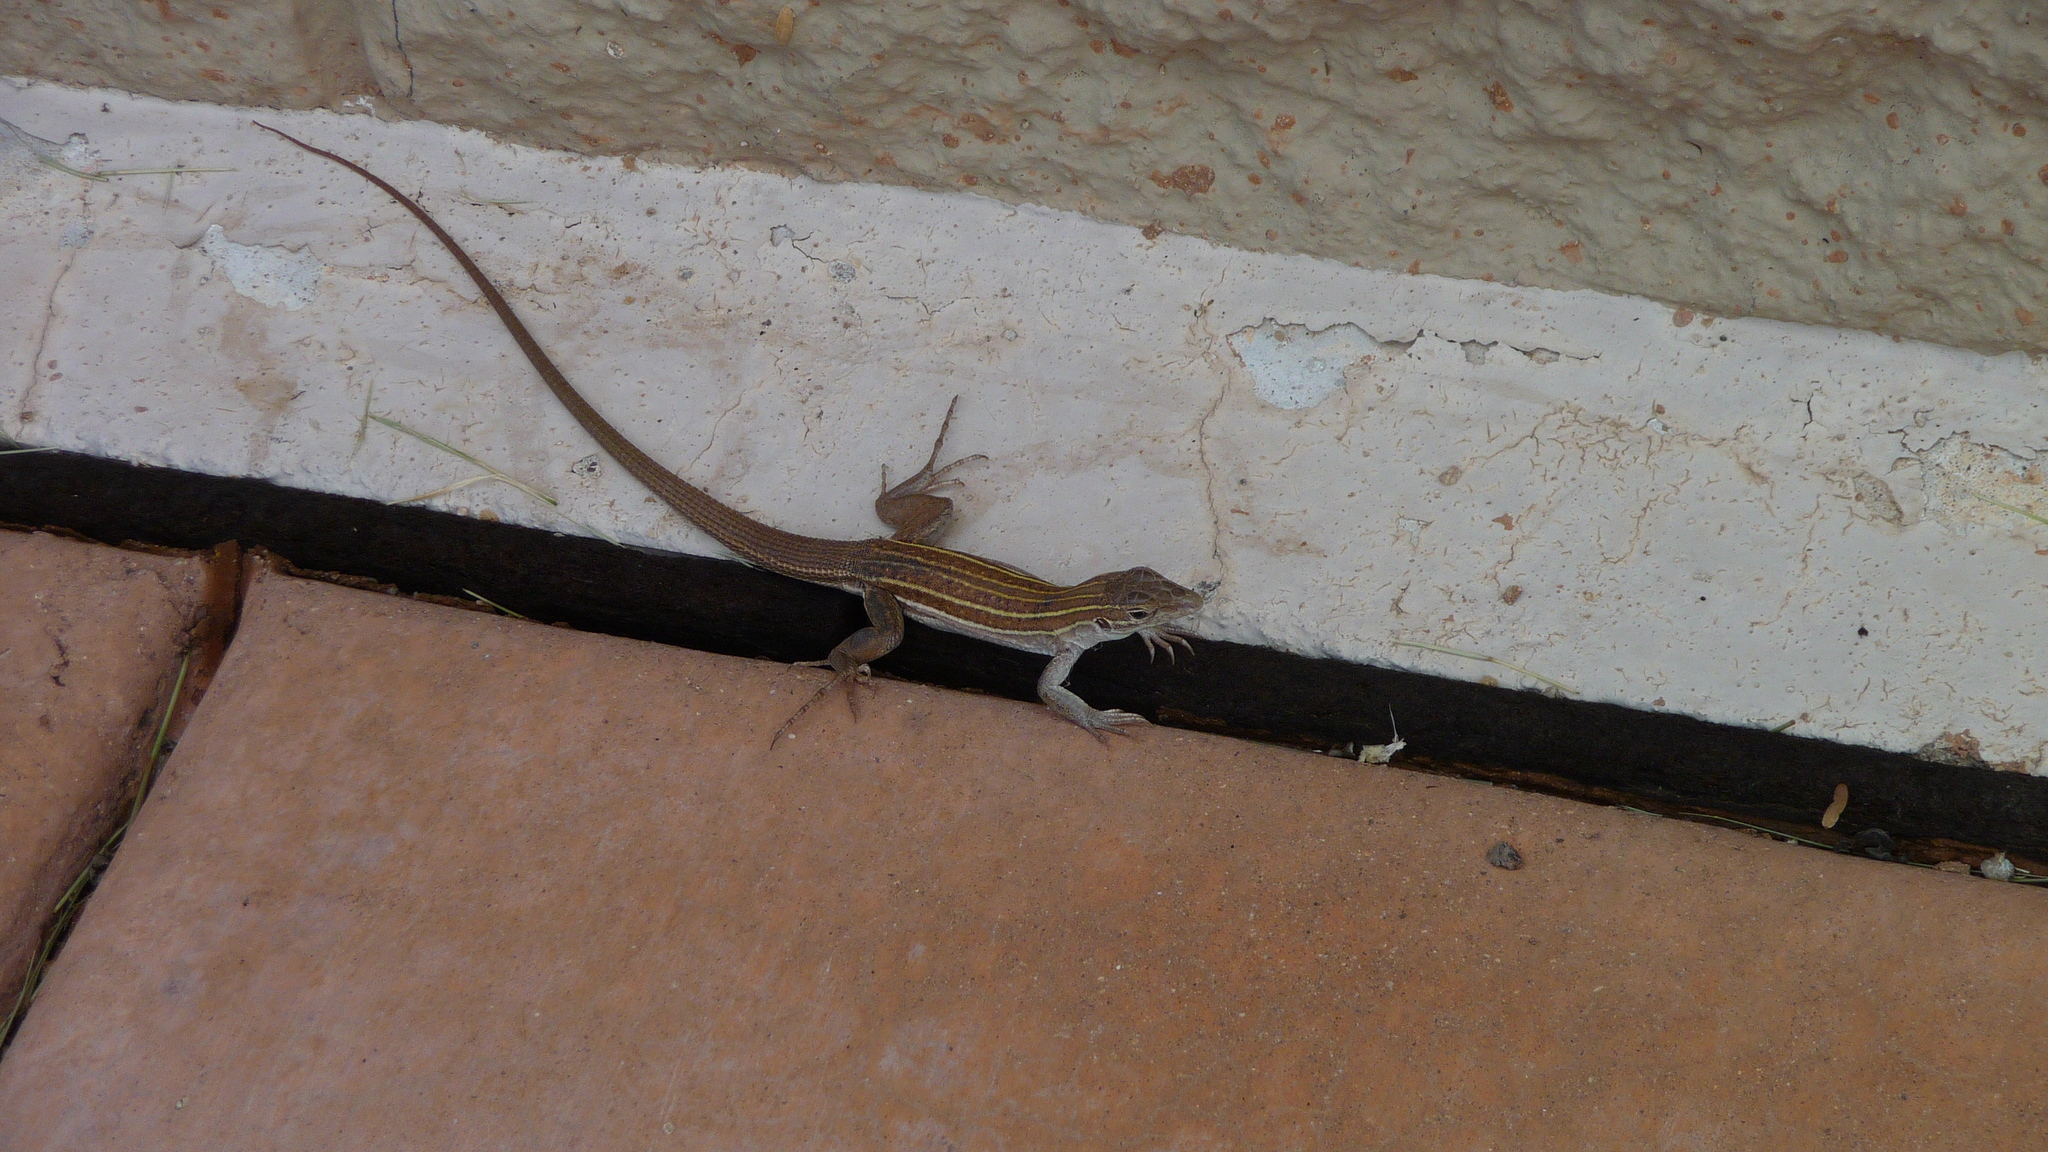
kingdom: Animalia
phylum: Chordata
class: Squamata
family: Teiidae
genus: Aspidoscelis
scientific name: Aspidoscelis sonorae
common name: Sonoran spotted whiptail
